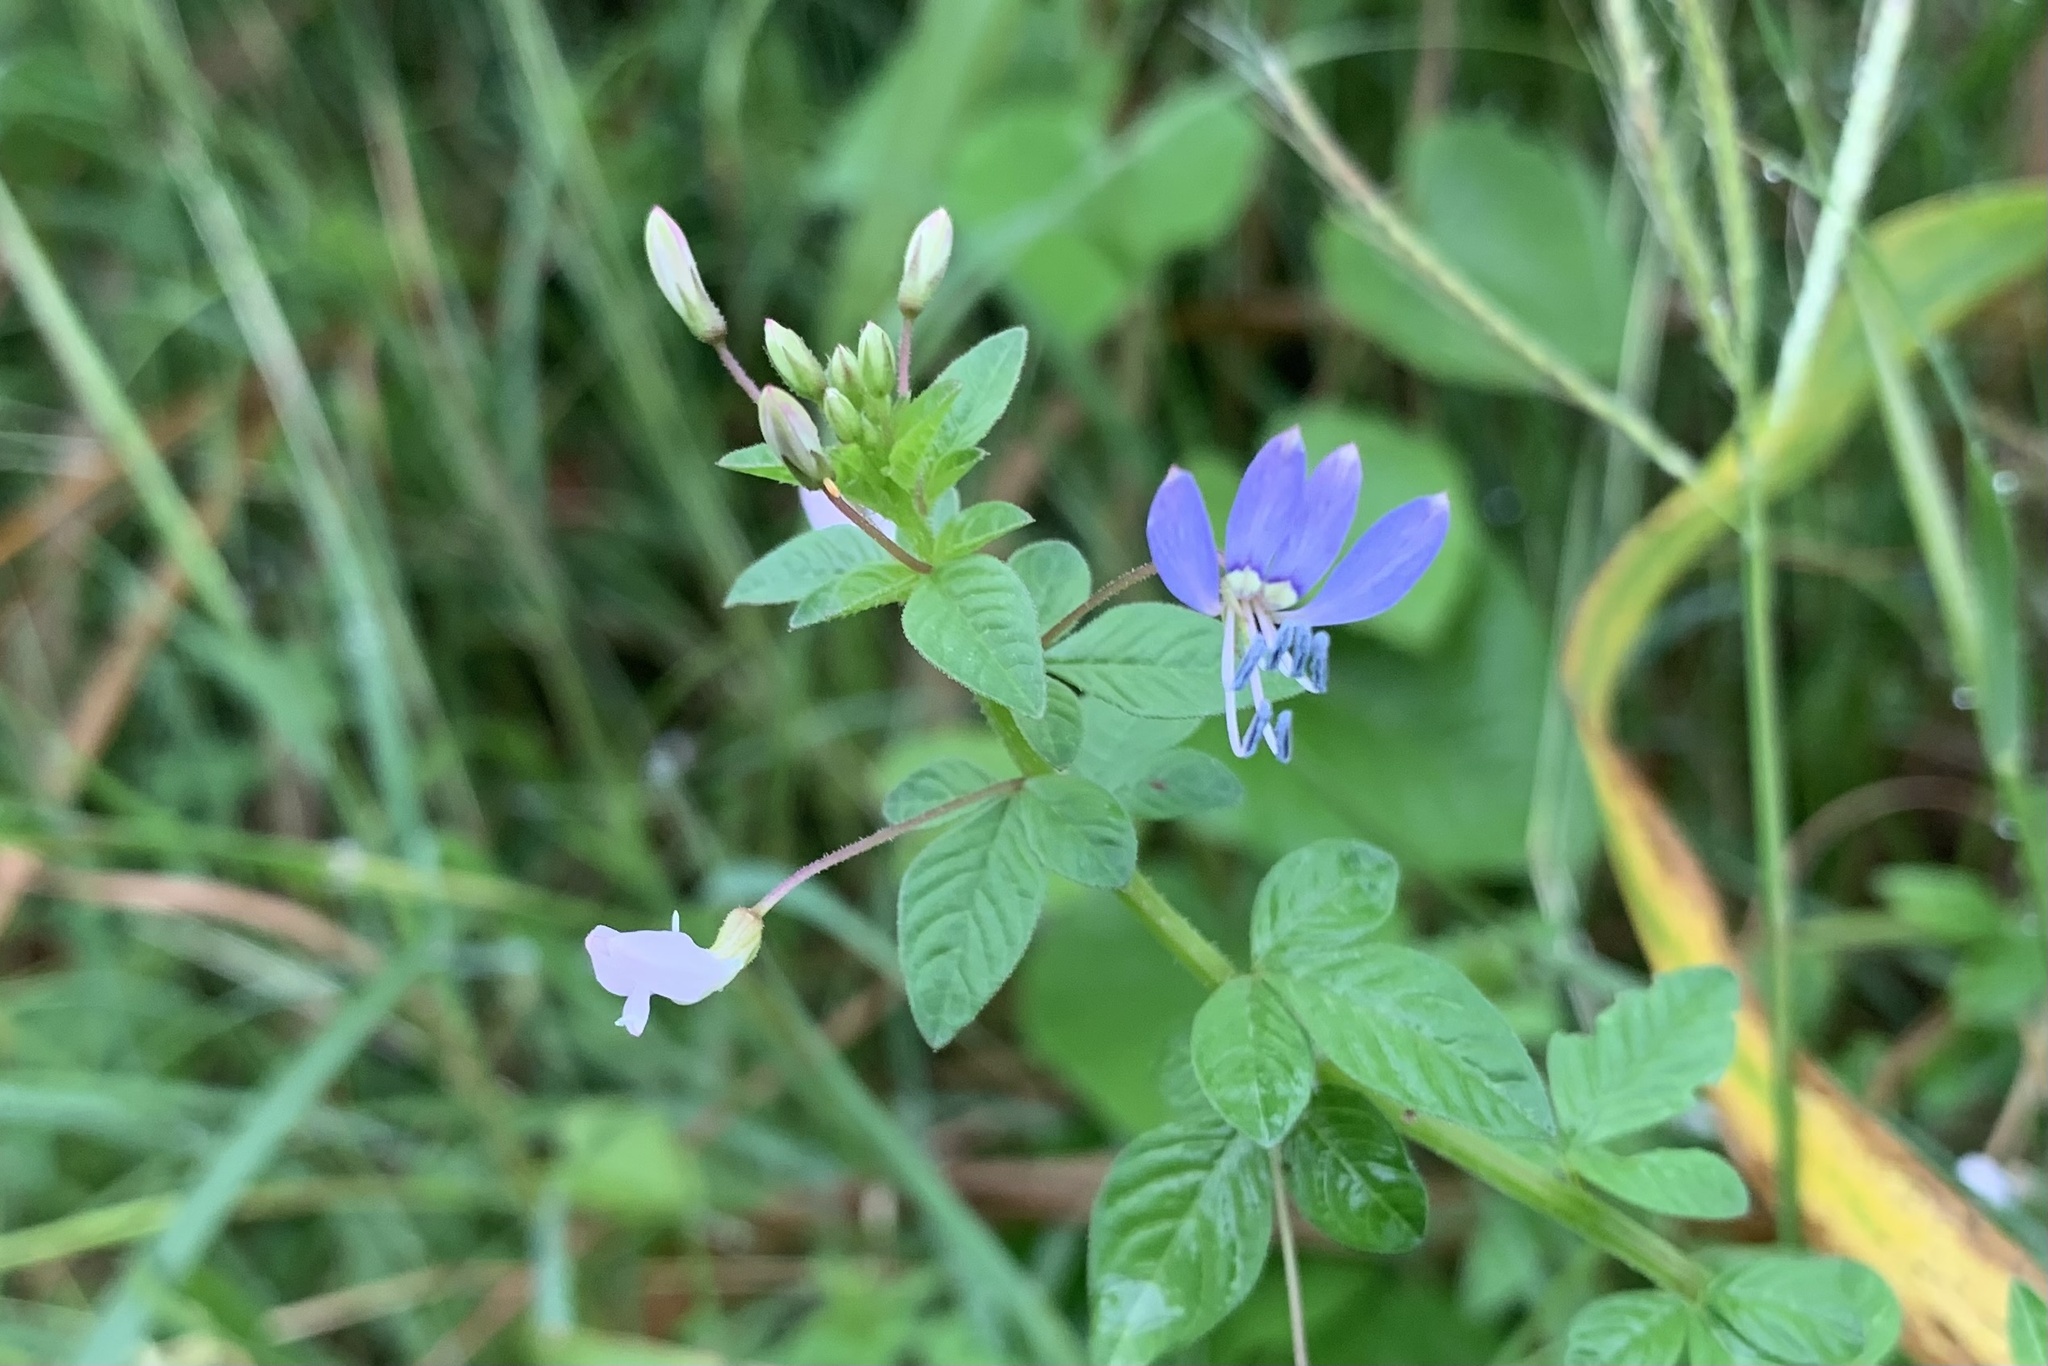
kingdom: Plantae
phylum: Tracheophyta
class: Magnoliopsida
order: Brassicales
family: Cleomaceae
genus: Sieruela
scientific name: Sieruela rutidosperma
